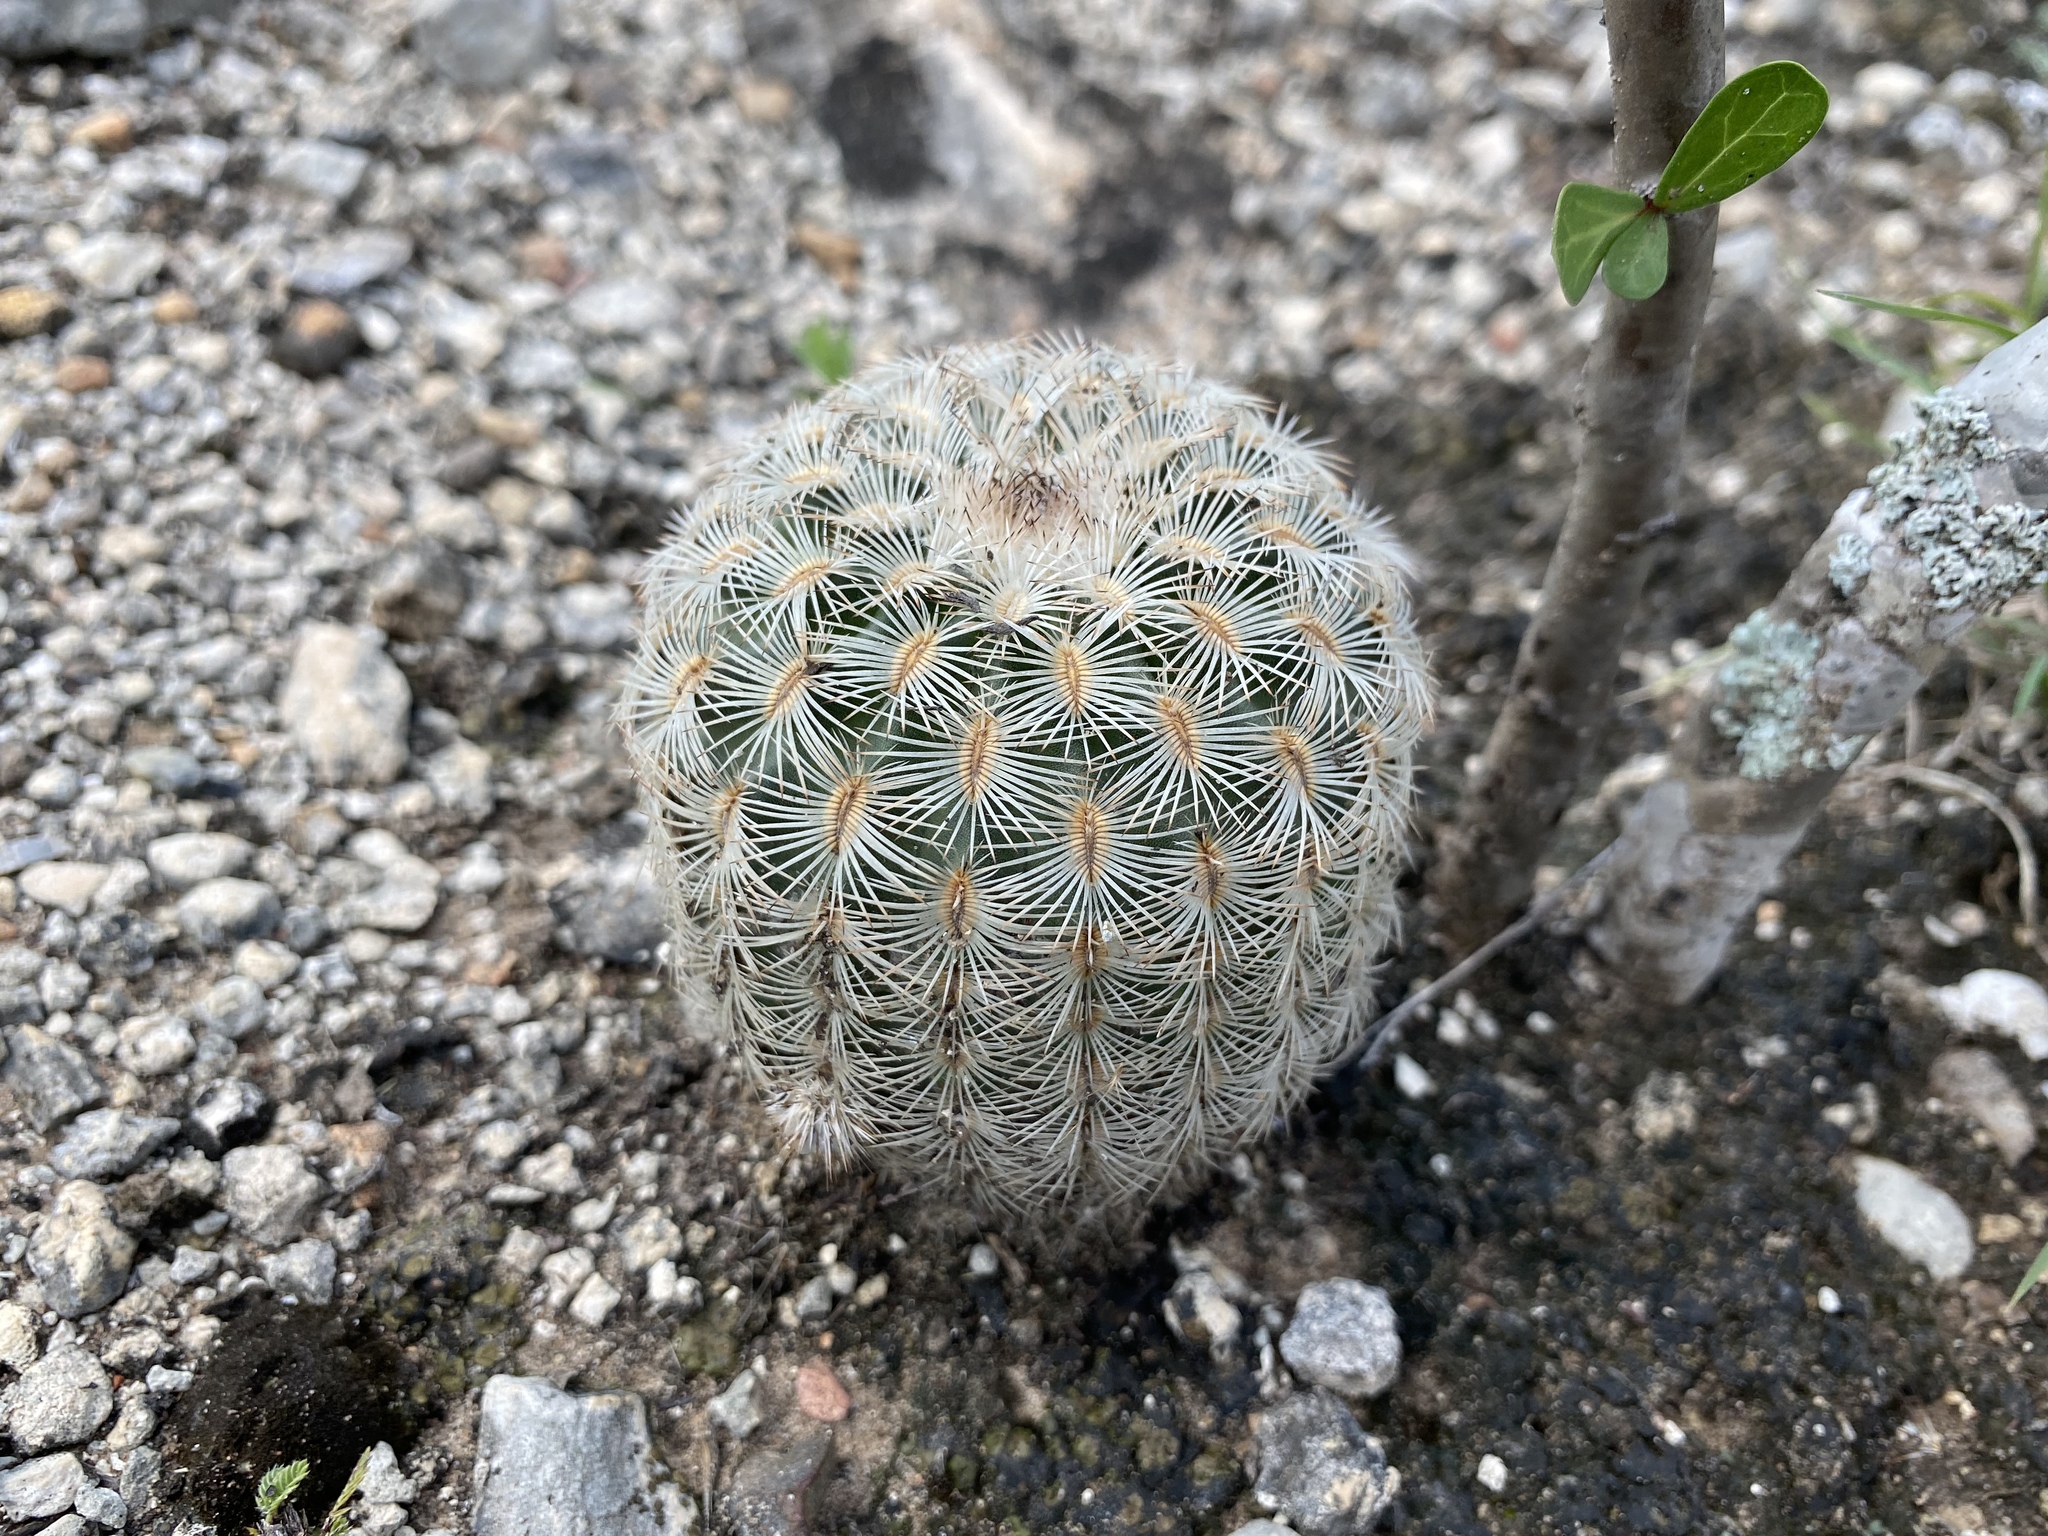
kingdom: Plantae
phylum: Tracheophyta
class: Magnoliopsida
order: Caryophyllales
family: Cactaceae
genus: Echinocereus
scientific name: Echinocereus reichenbachii
